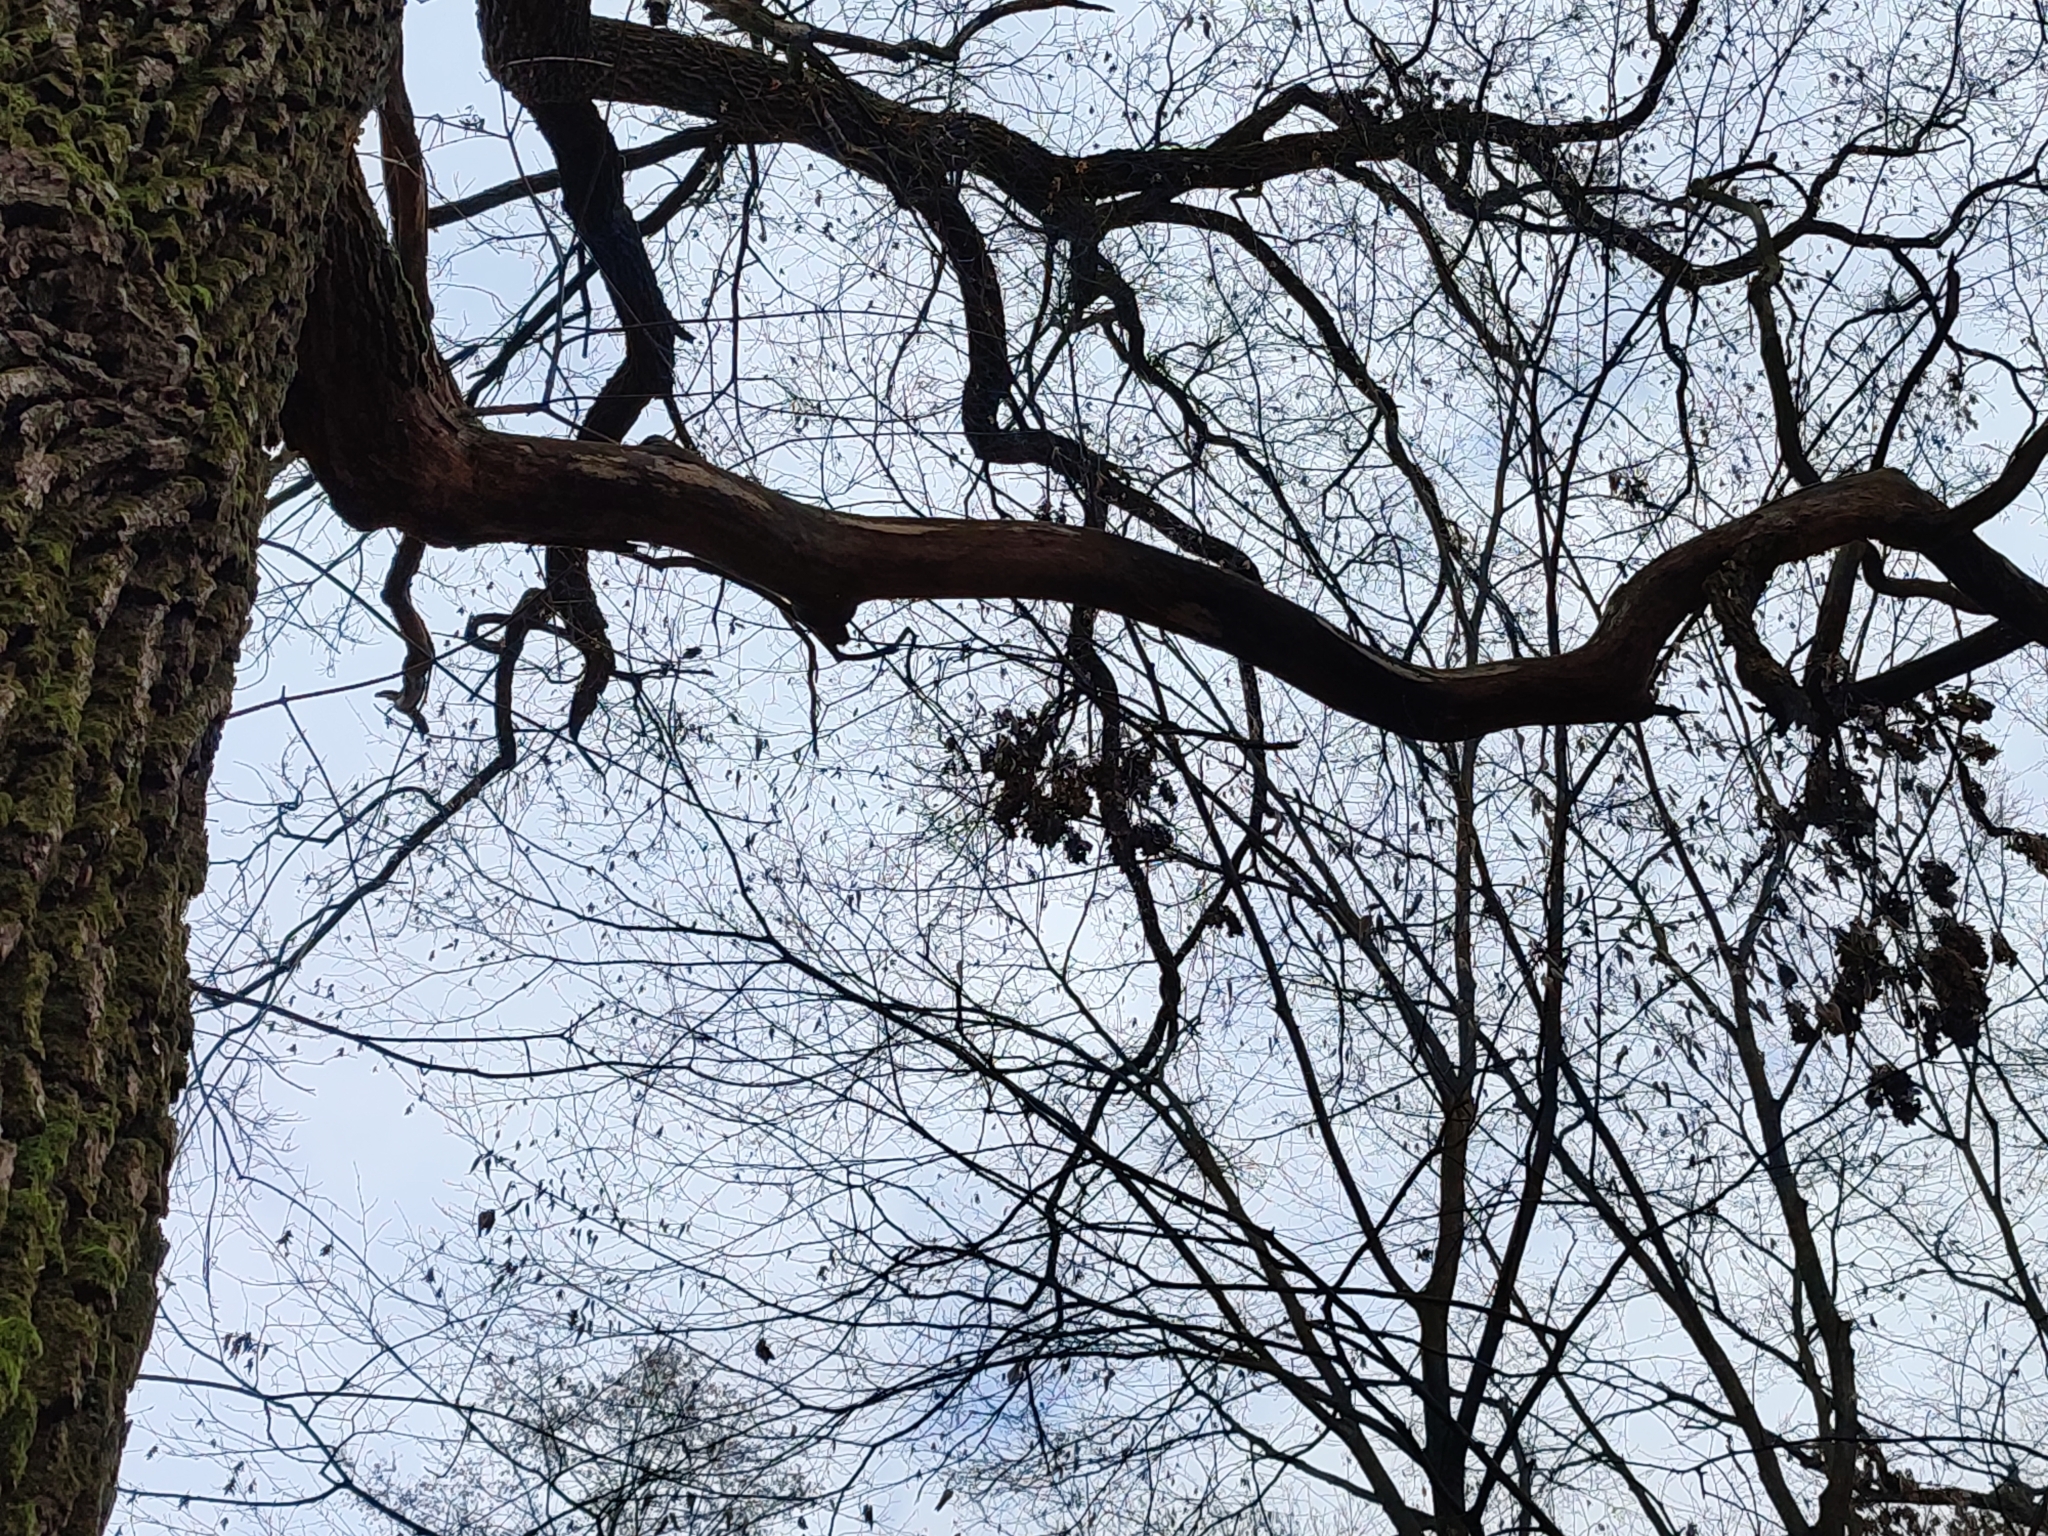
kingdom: Plantae
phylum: Tracheophyta
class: Magnoliopsida
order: Fagales
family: Fagaceae
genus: Quercus
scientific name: Quercus robur
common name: Pedunculate oak
